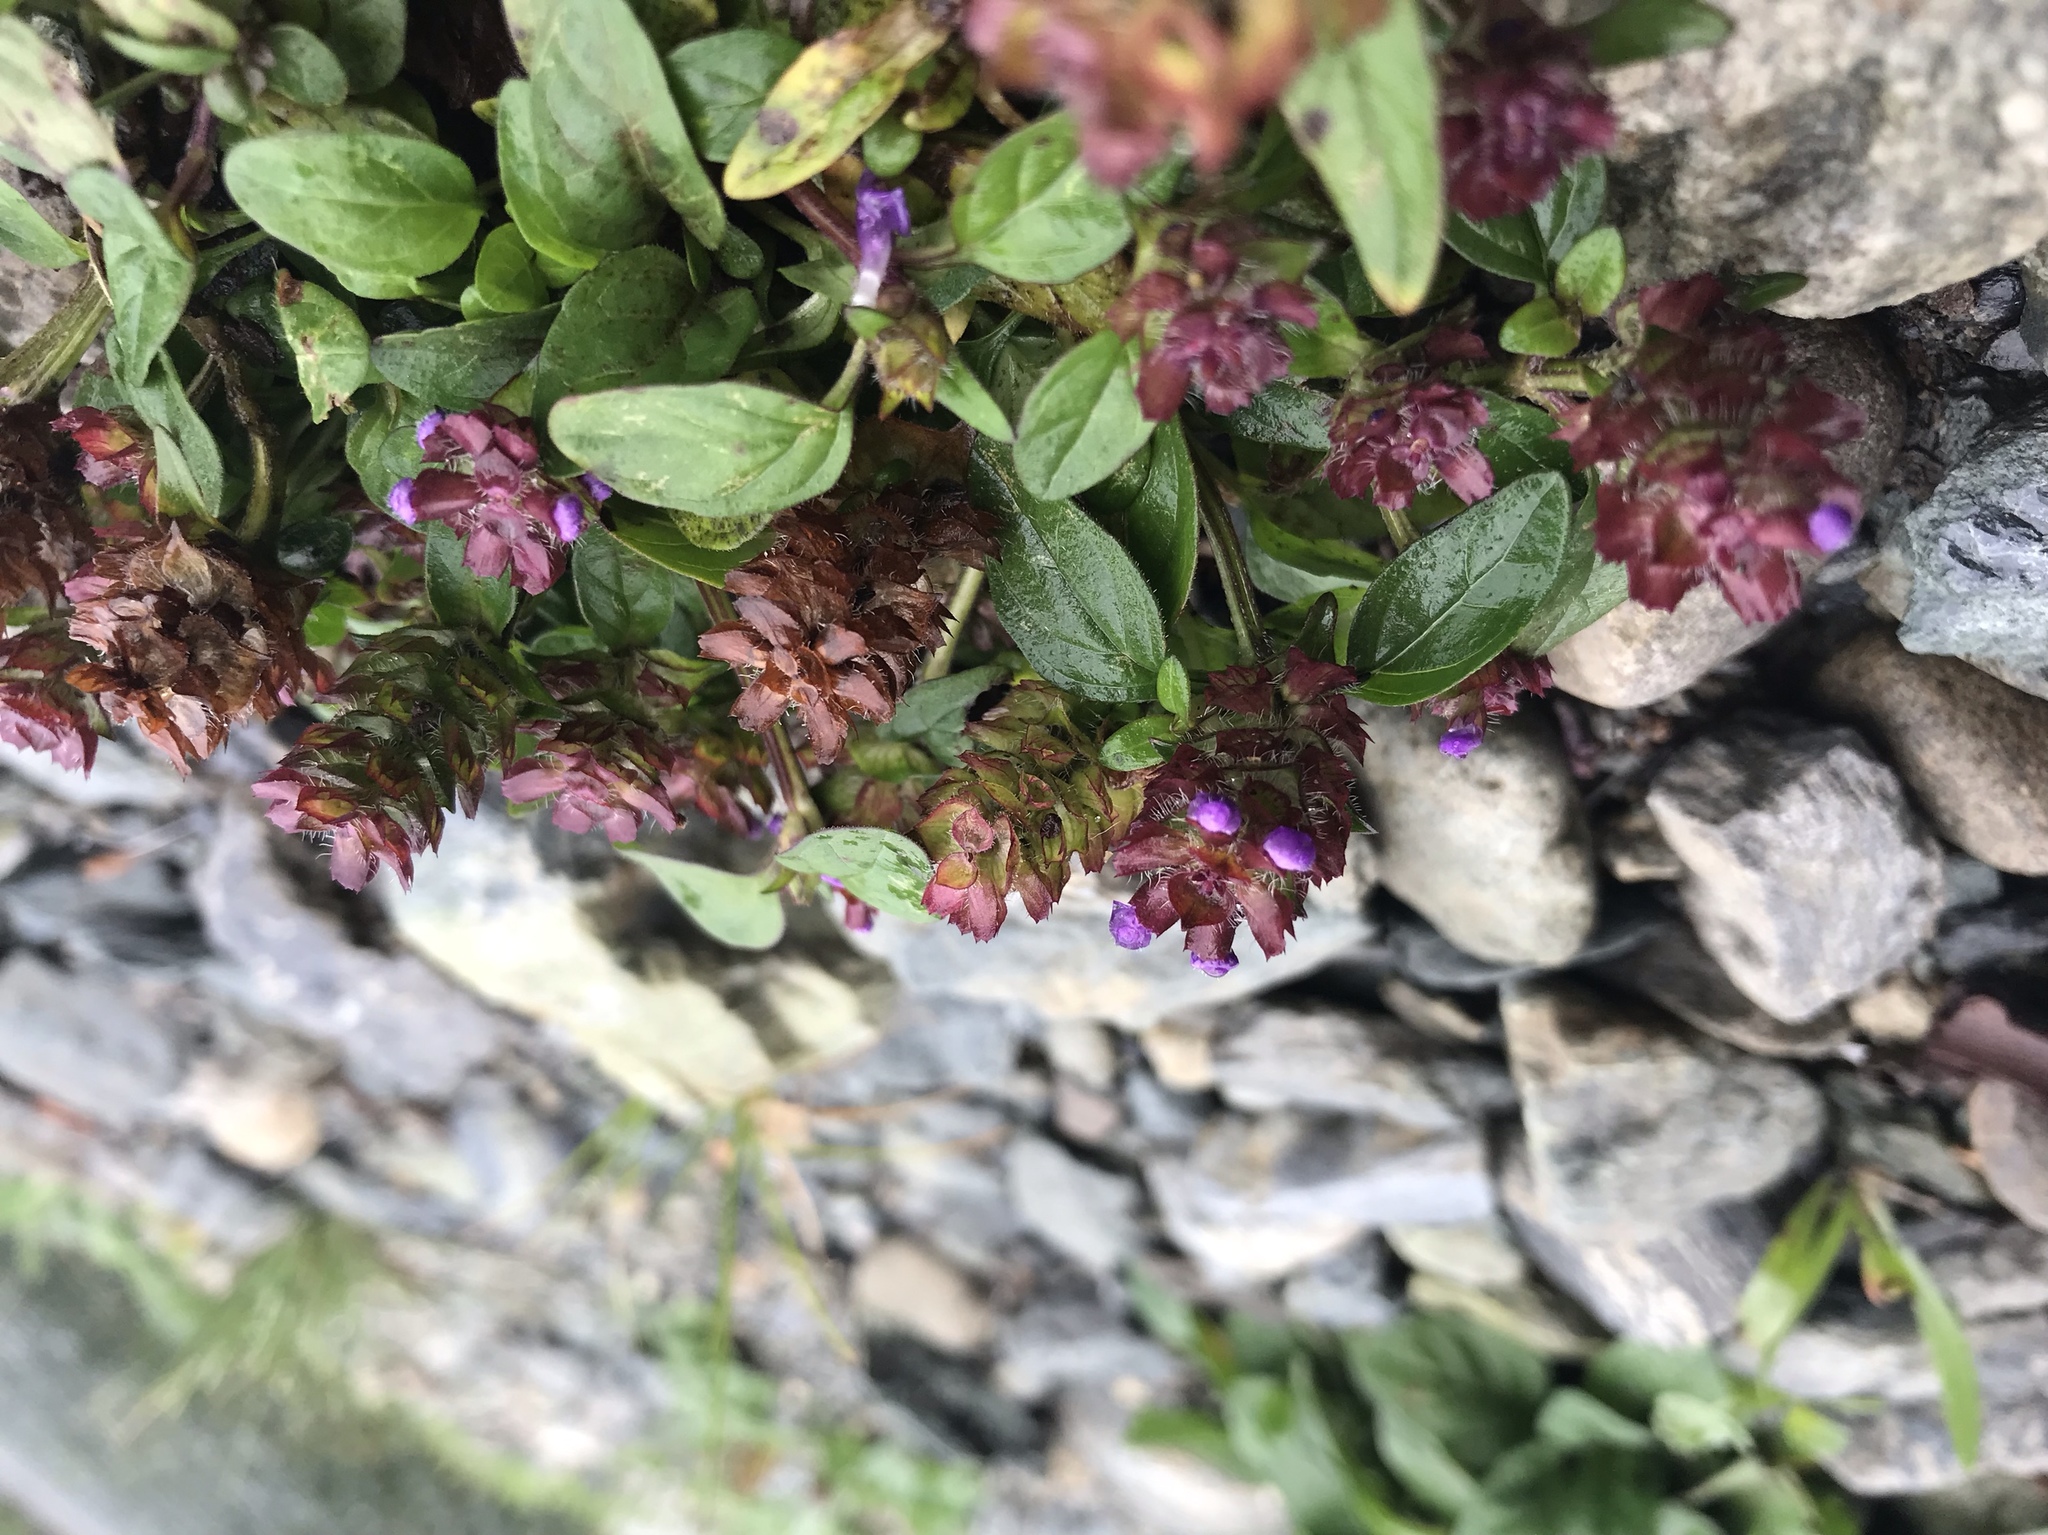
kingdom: Plantae
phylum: Tracheophyta
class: Magnoliopsida
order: Lamiales
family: Lamiaceae
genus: Prunella
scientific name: Prunella vulgaris
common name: Heal-all
